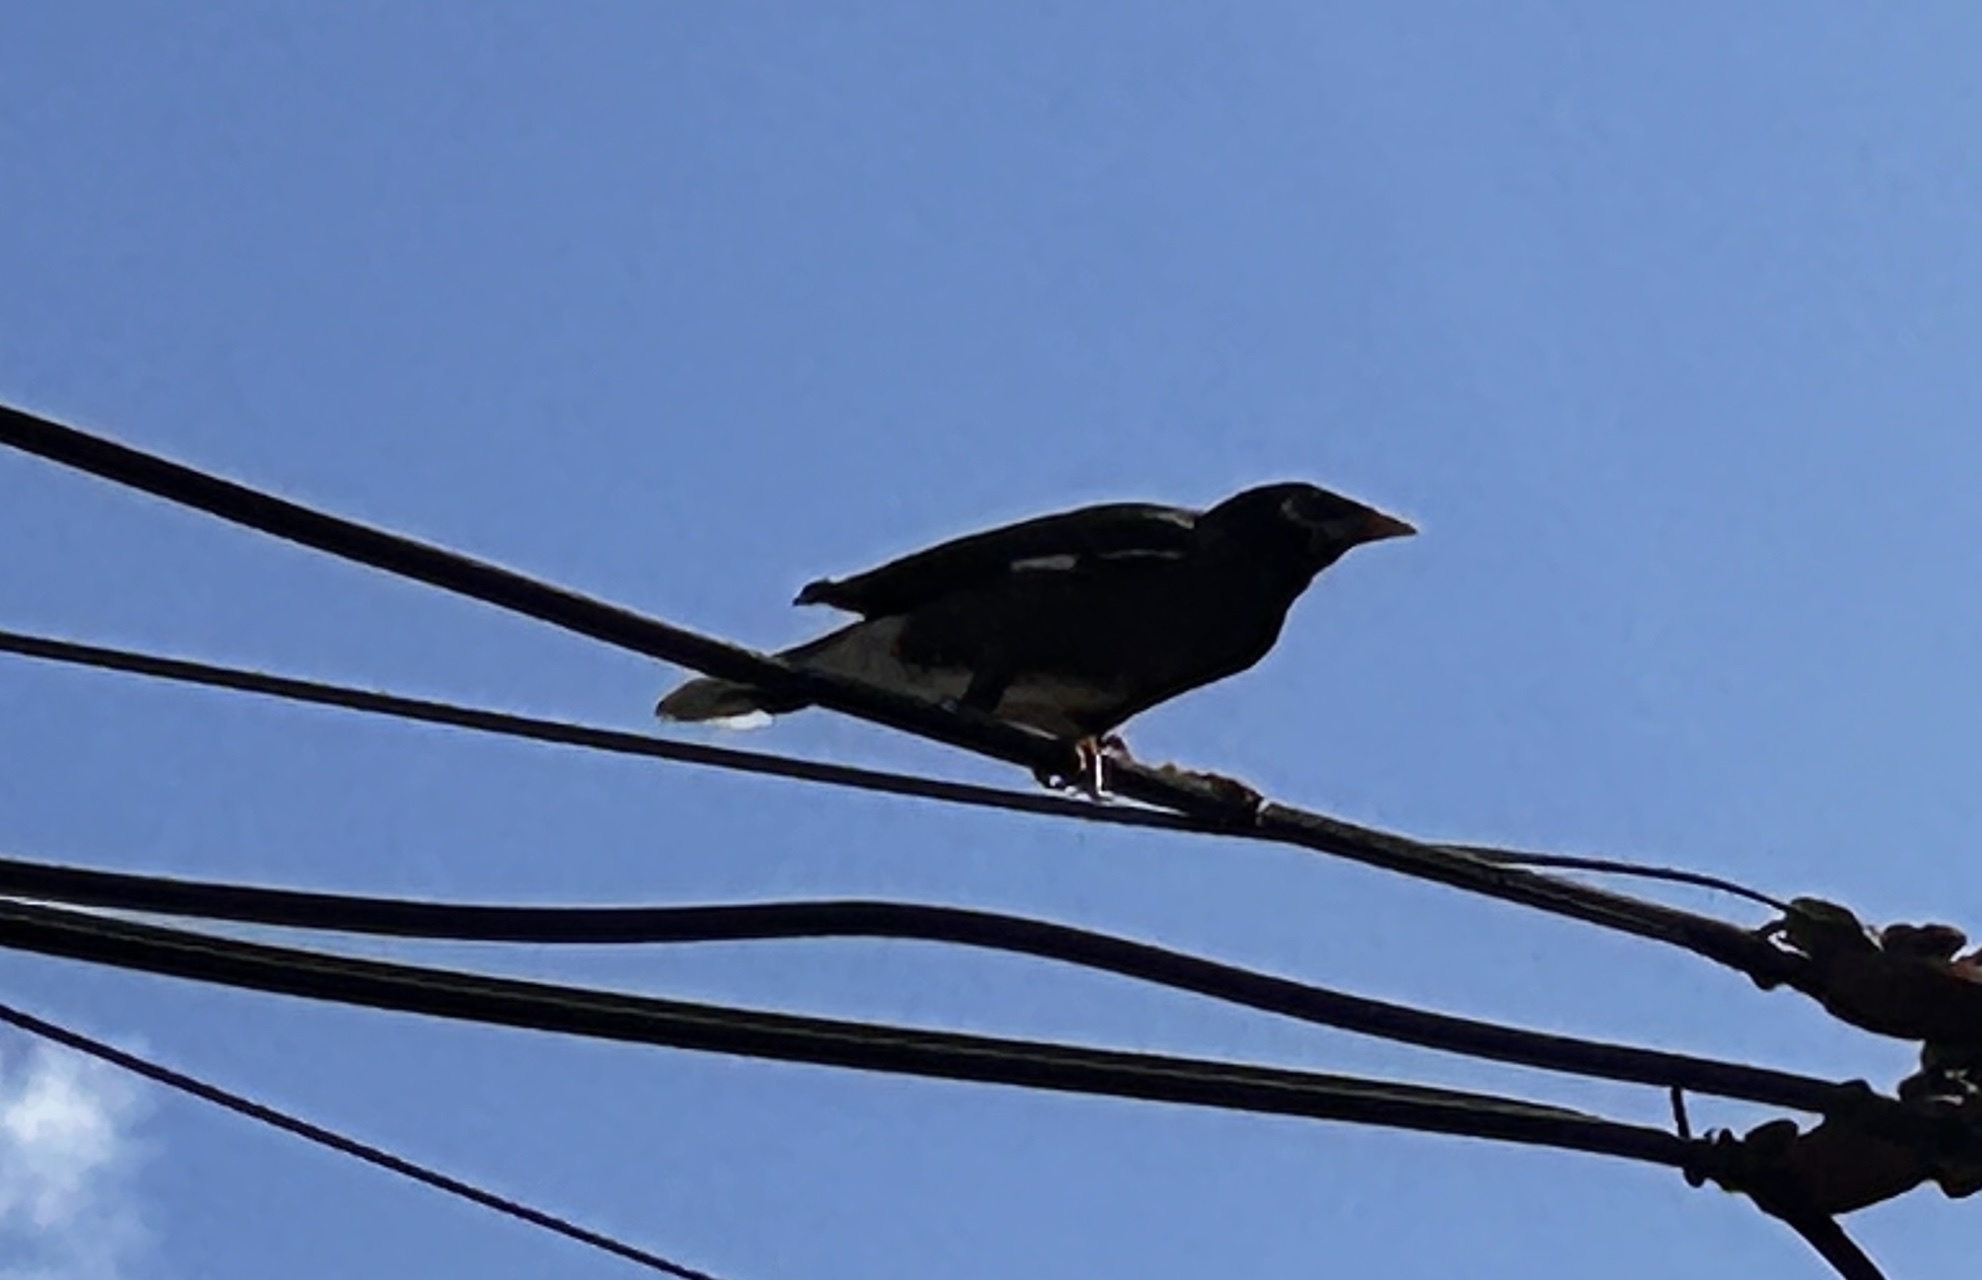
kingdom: Animalia
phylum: Chordata
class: Aves
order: Passeriformes
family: Sturnidae
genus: Acridotheres
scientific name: Acridotheres tristis
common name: Common myna
